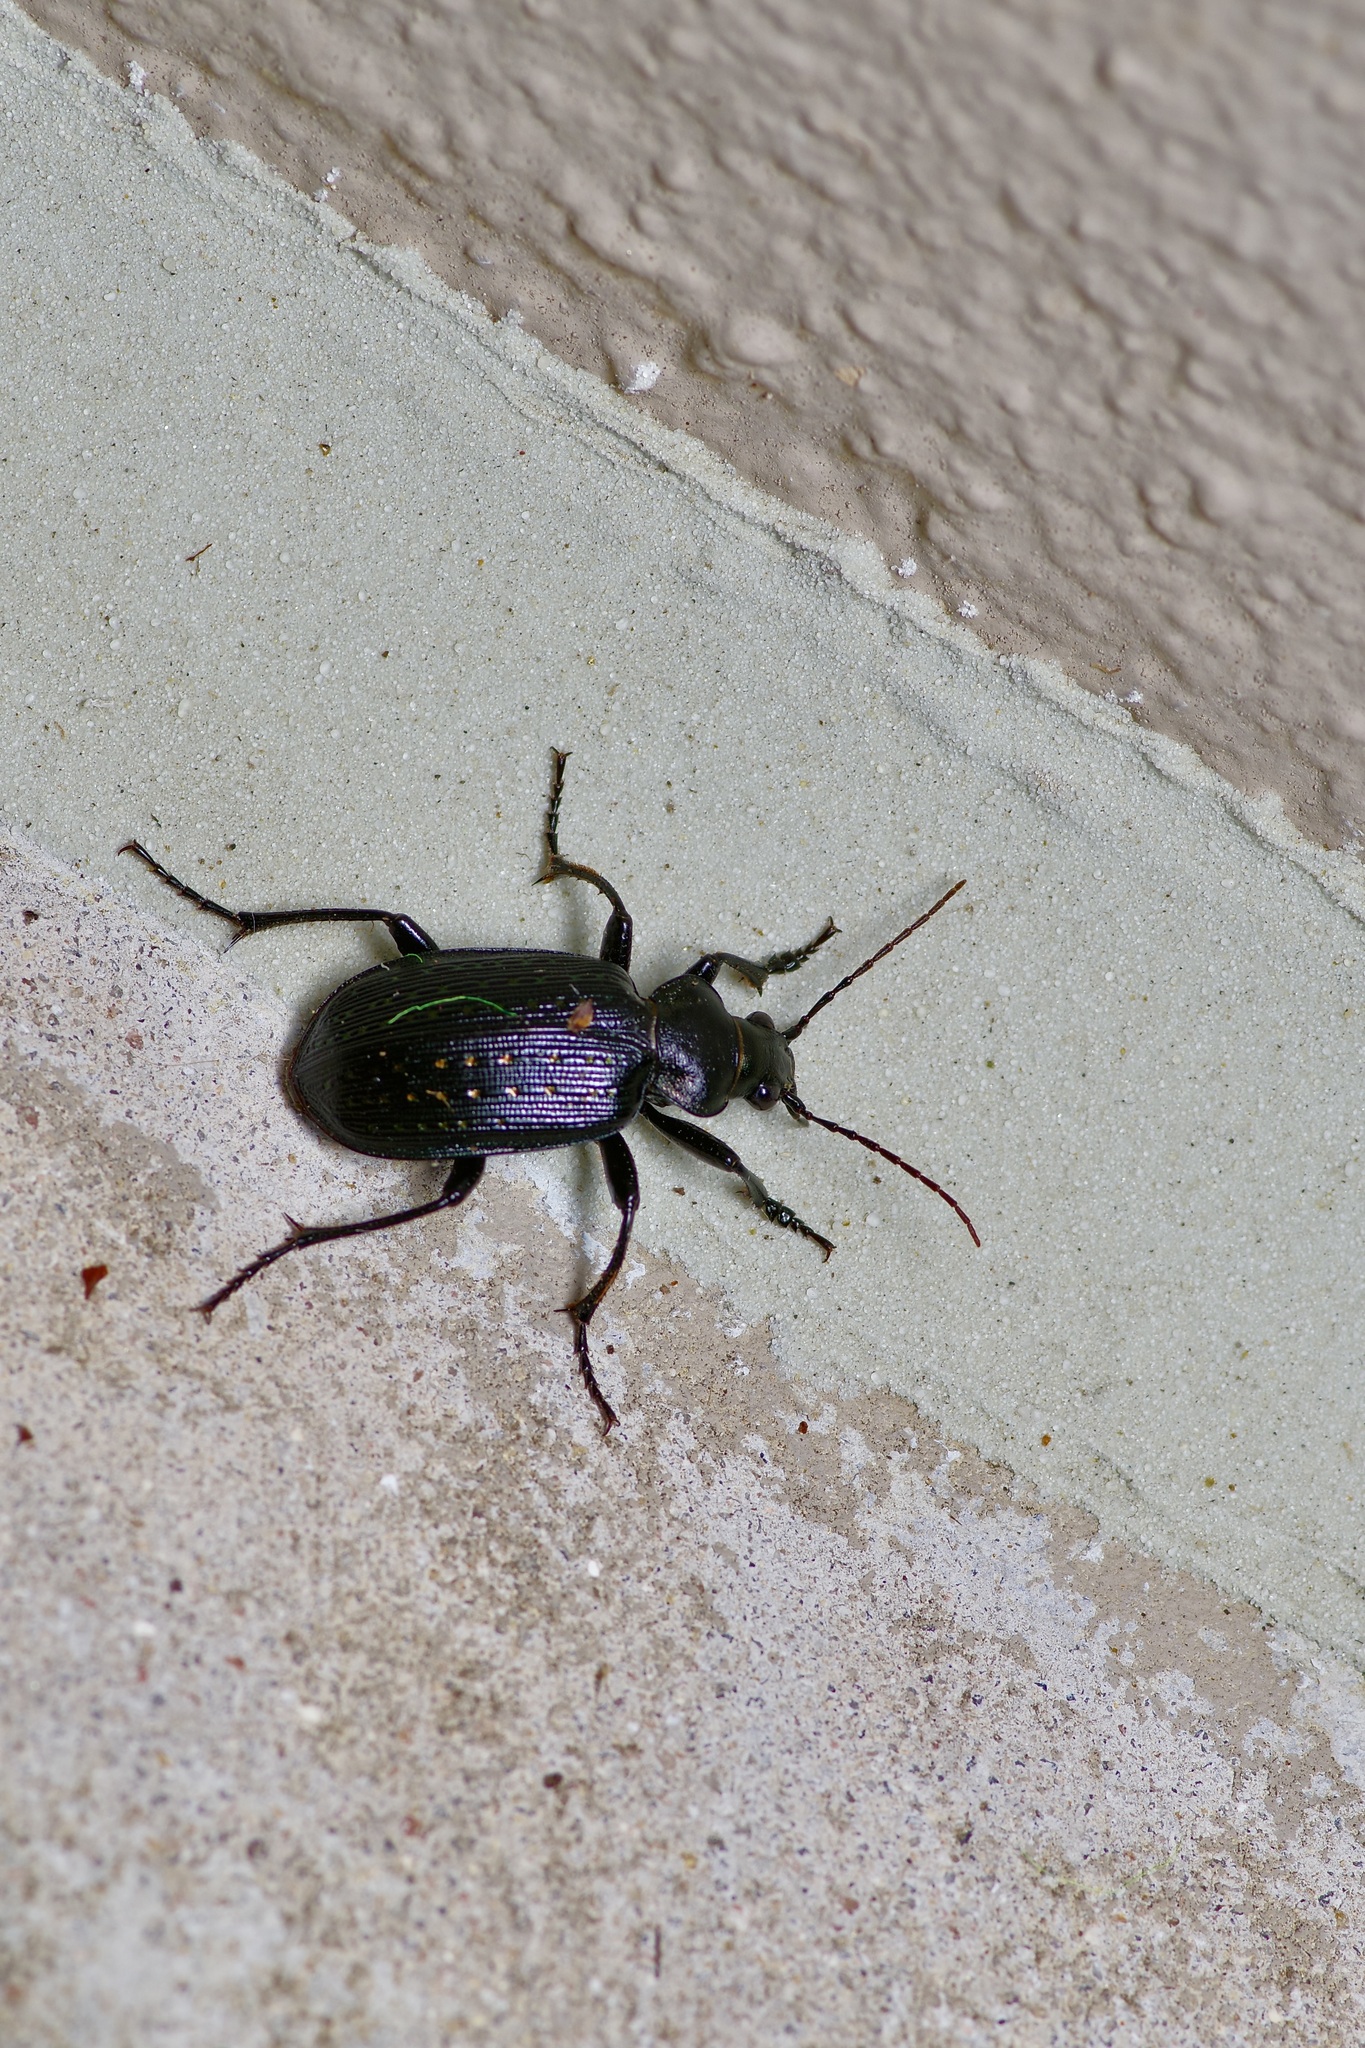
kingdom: Animalia
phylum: Arthropoda
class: Insecta
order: Coleoptera
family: Carabidae
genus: Calosoma
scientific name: Calosoma sayi
